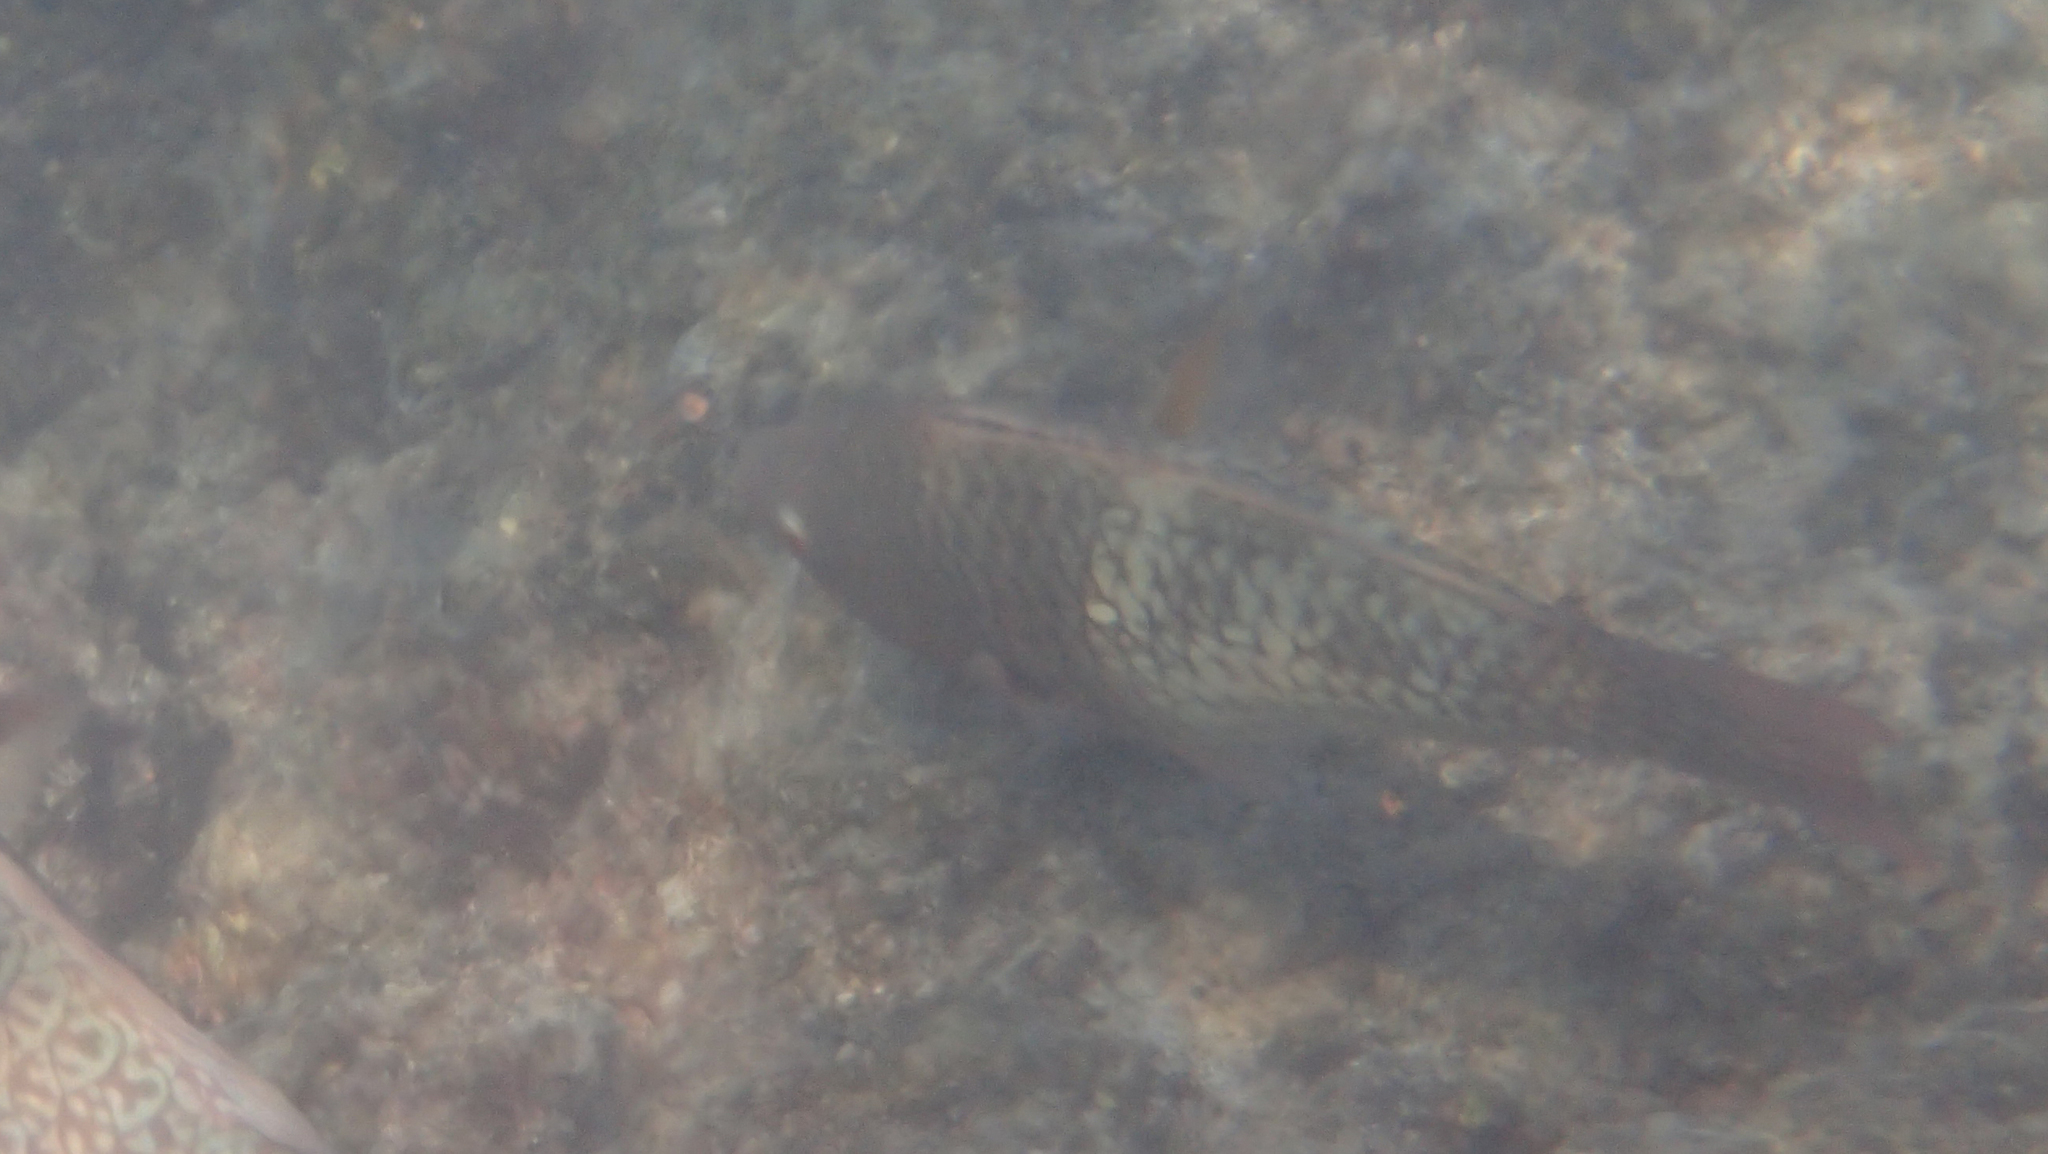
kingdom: Animalia
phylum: Chordata
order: Perciformes
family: Scaridae
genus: Scarus
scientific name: Scarus rubroviolaceus
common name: Ember parrotfish
